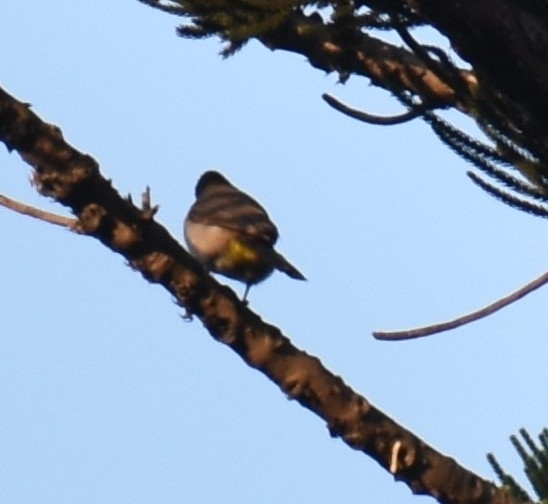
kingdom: Animalia
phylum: Chordata
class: Aves
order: Passeriformes
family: Pycnonotidae
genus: Pycnonotus
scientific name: Pycnonotus barbatus
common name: Common bulbul
